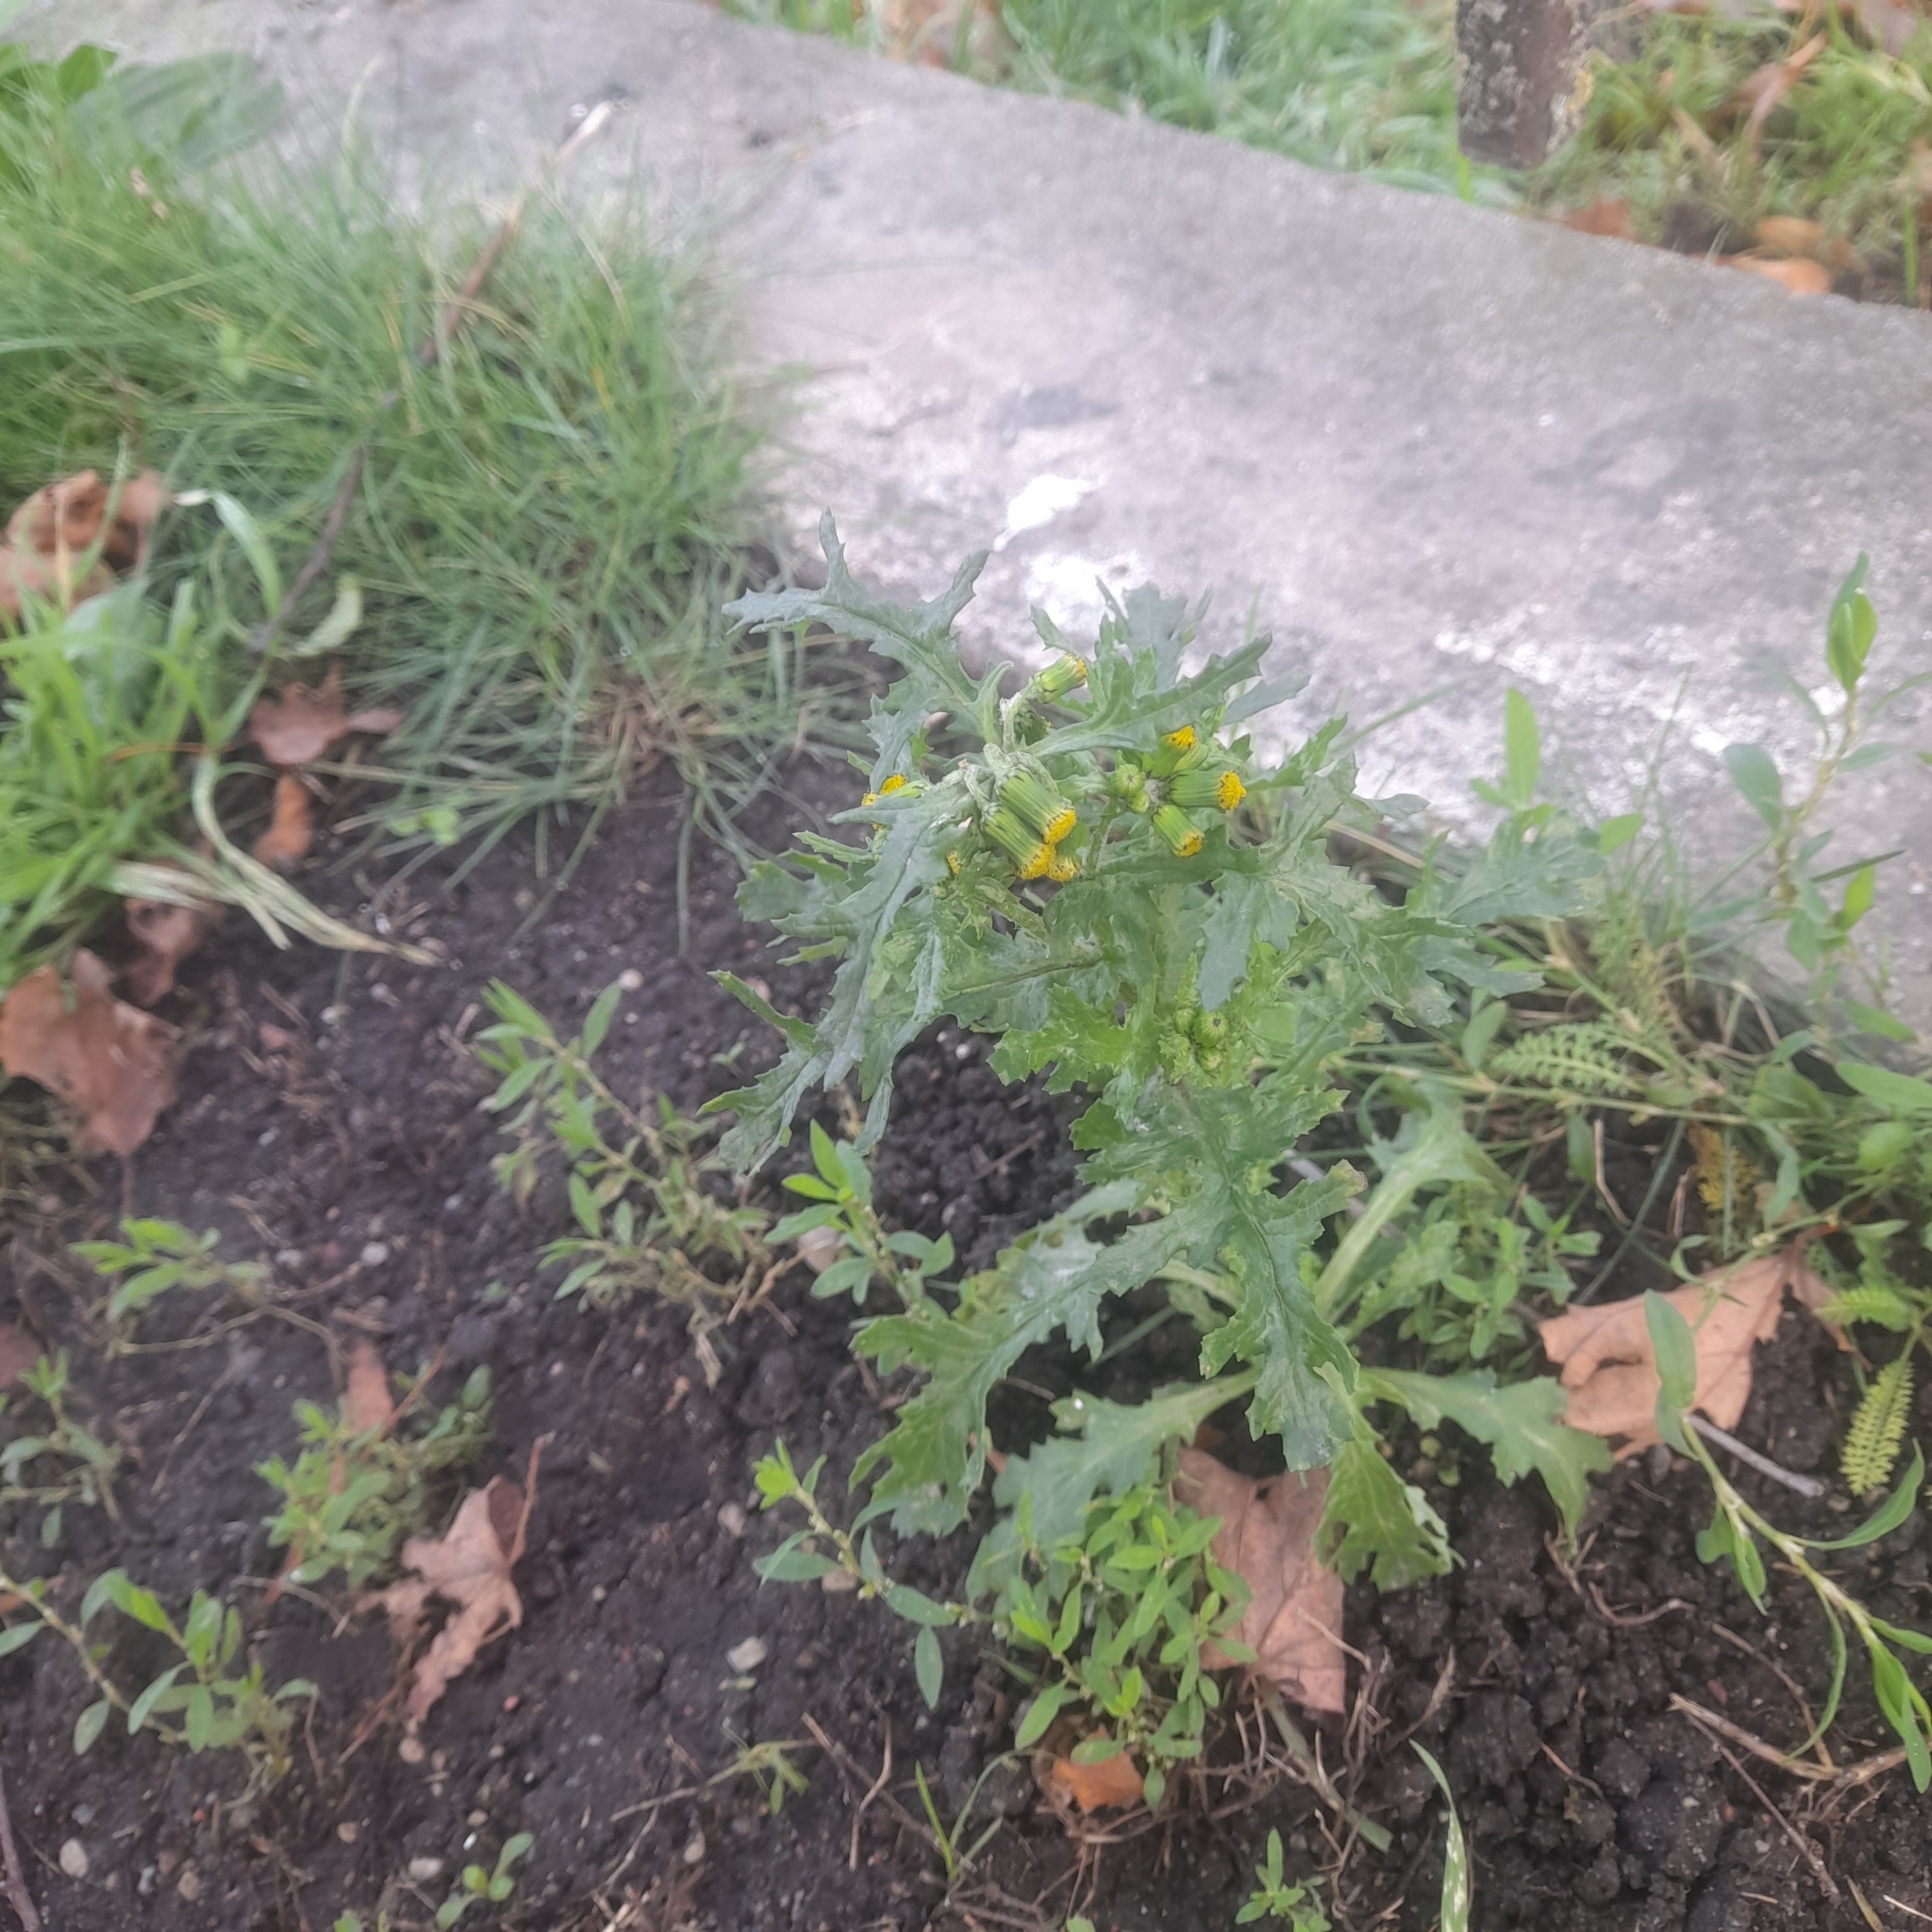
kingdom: Plantae
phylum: Tracheophyta
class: Magnoliopsida
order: Asterales
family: Asteraceae
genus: Senecio
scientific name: Senecio vulgaris
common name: Old-man-in-the-spring
